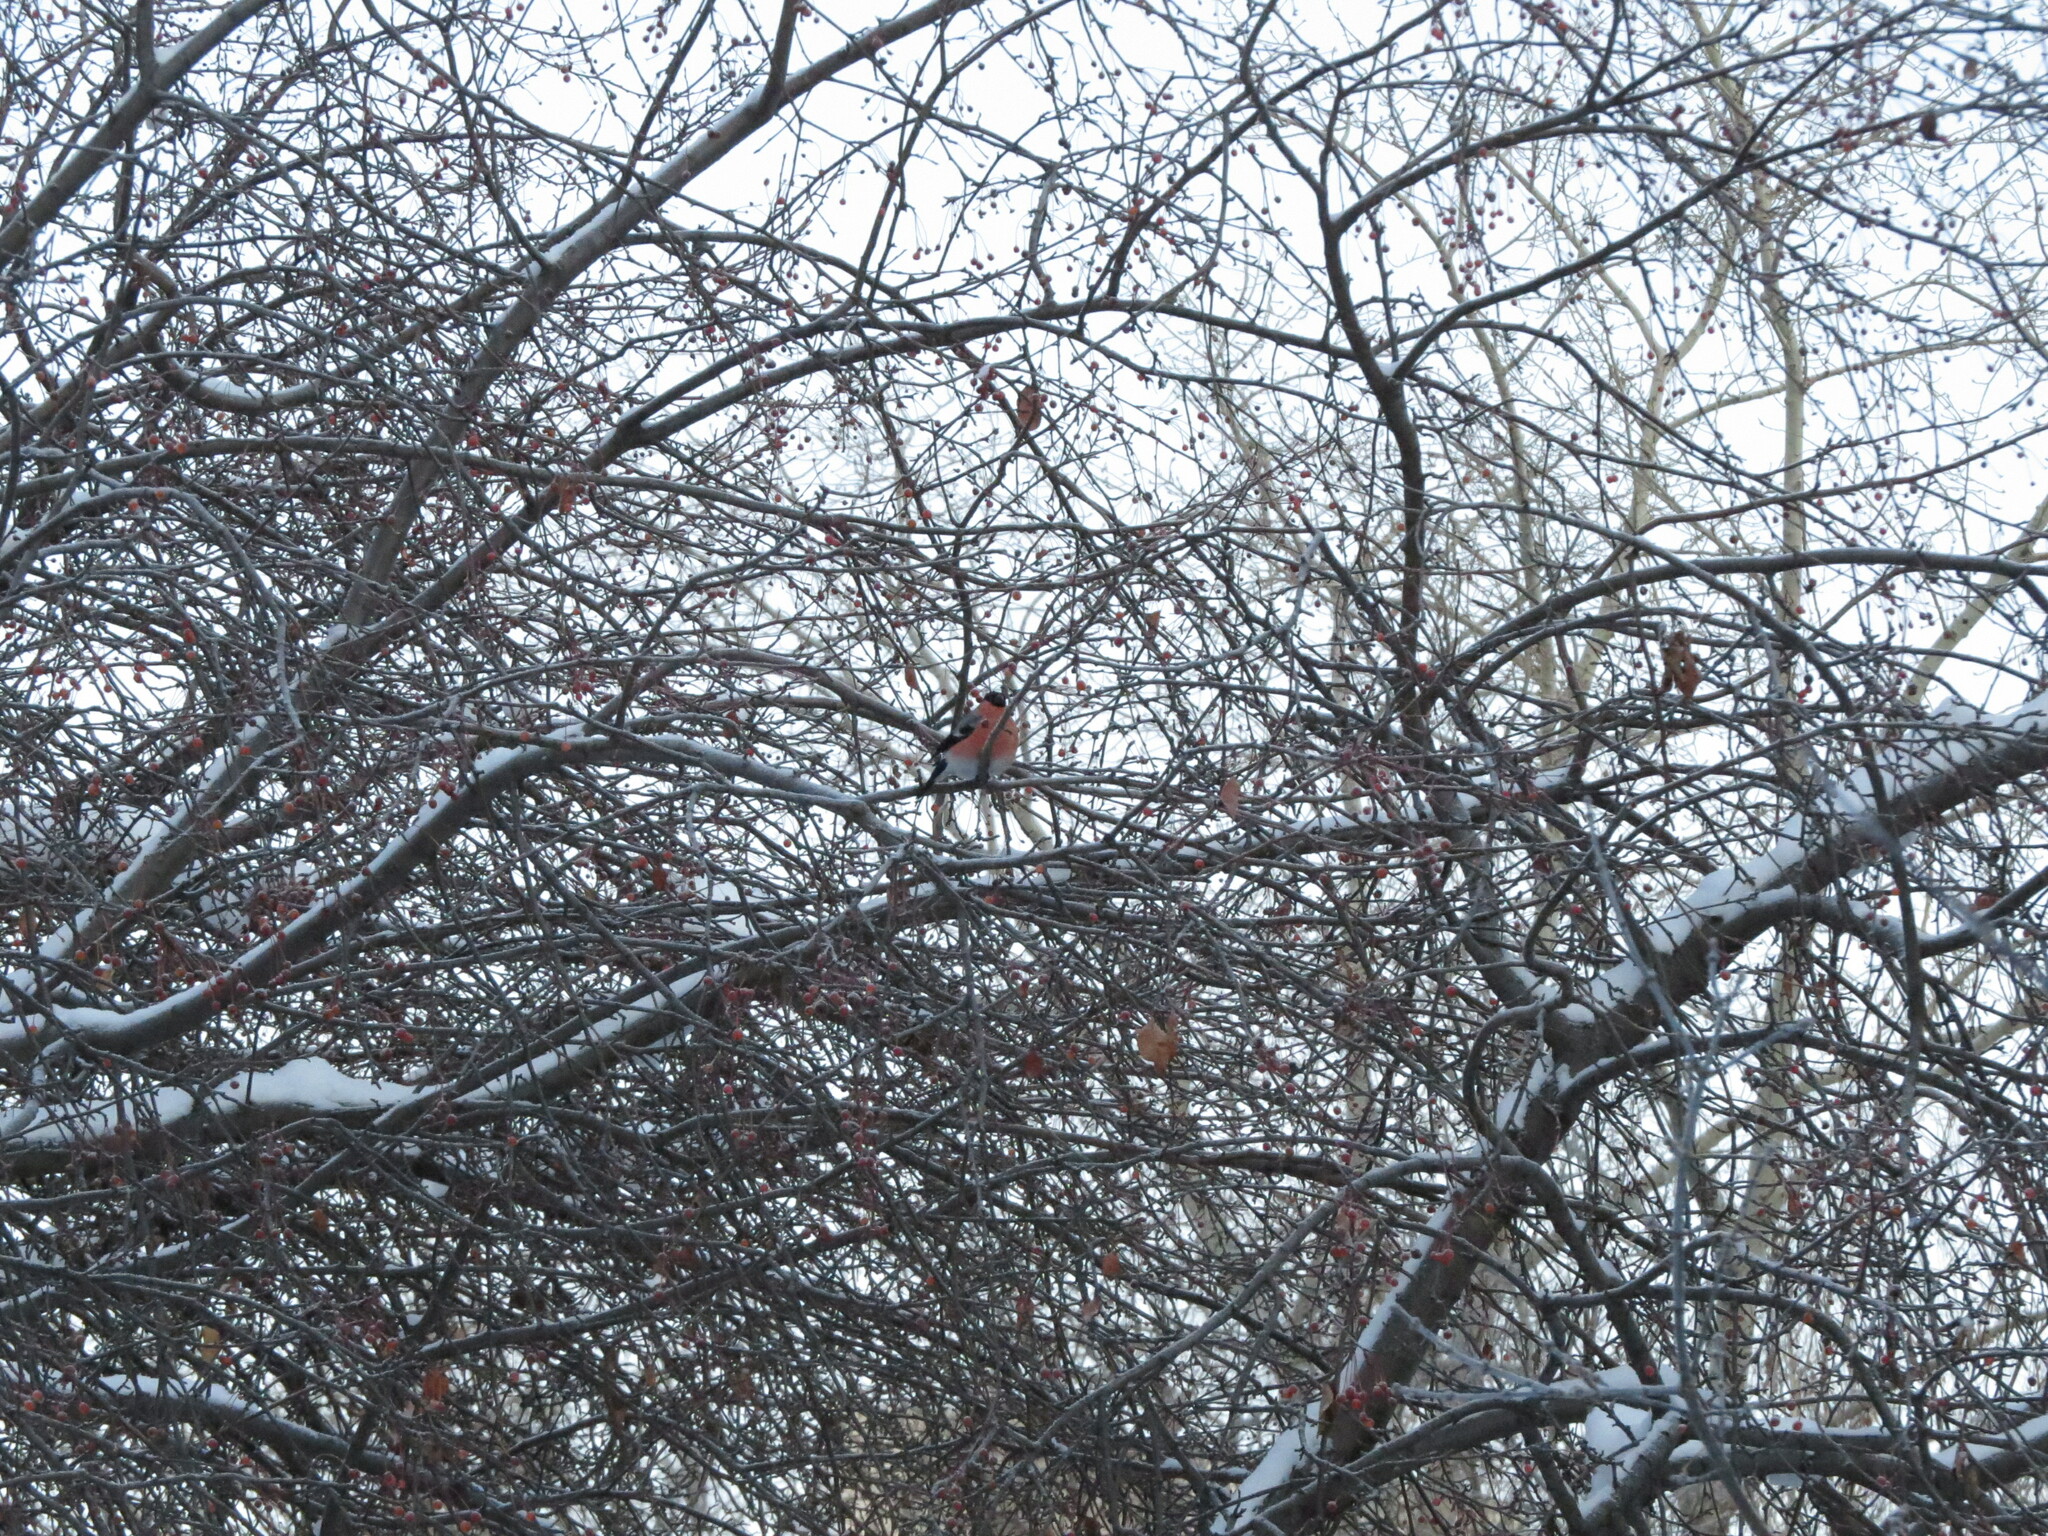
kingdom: Animalia
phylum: Chordata
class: Aves
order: Passeriformes
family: Fringillidae
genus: Pyrrhula
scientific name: Pyrrhula pyrrhula
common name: Eurasian bullfinch
